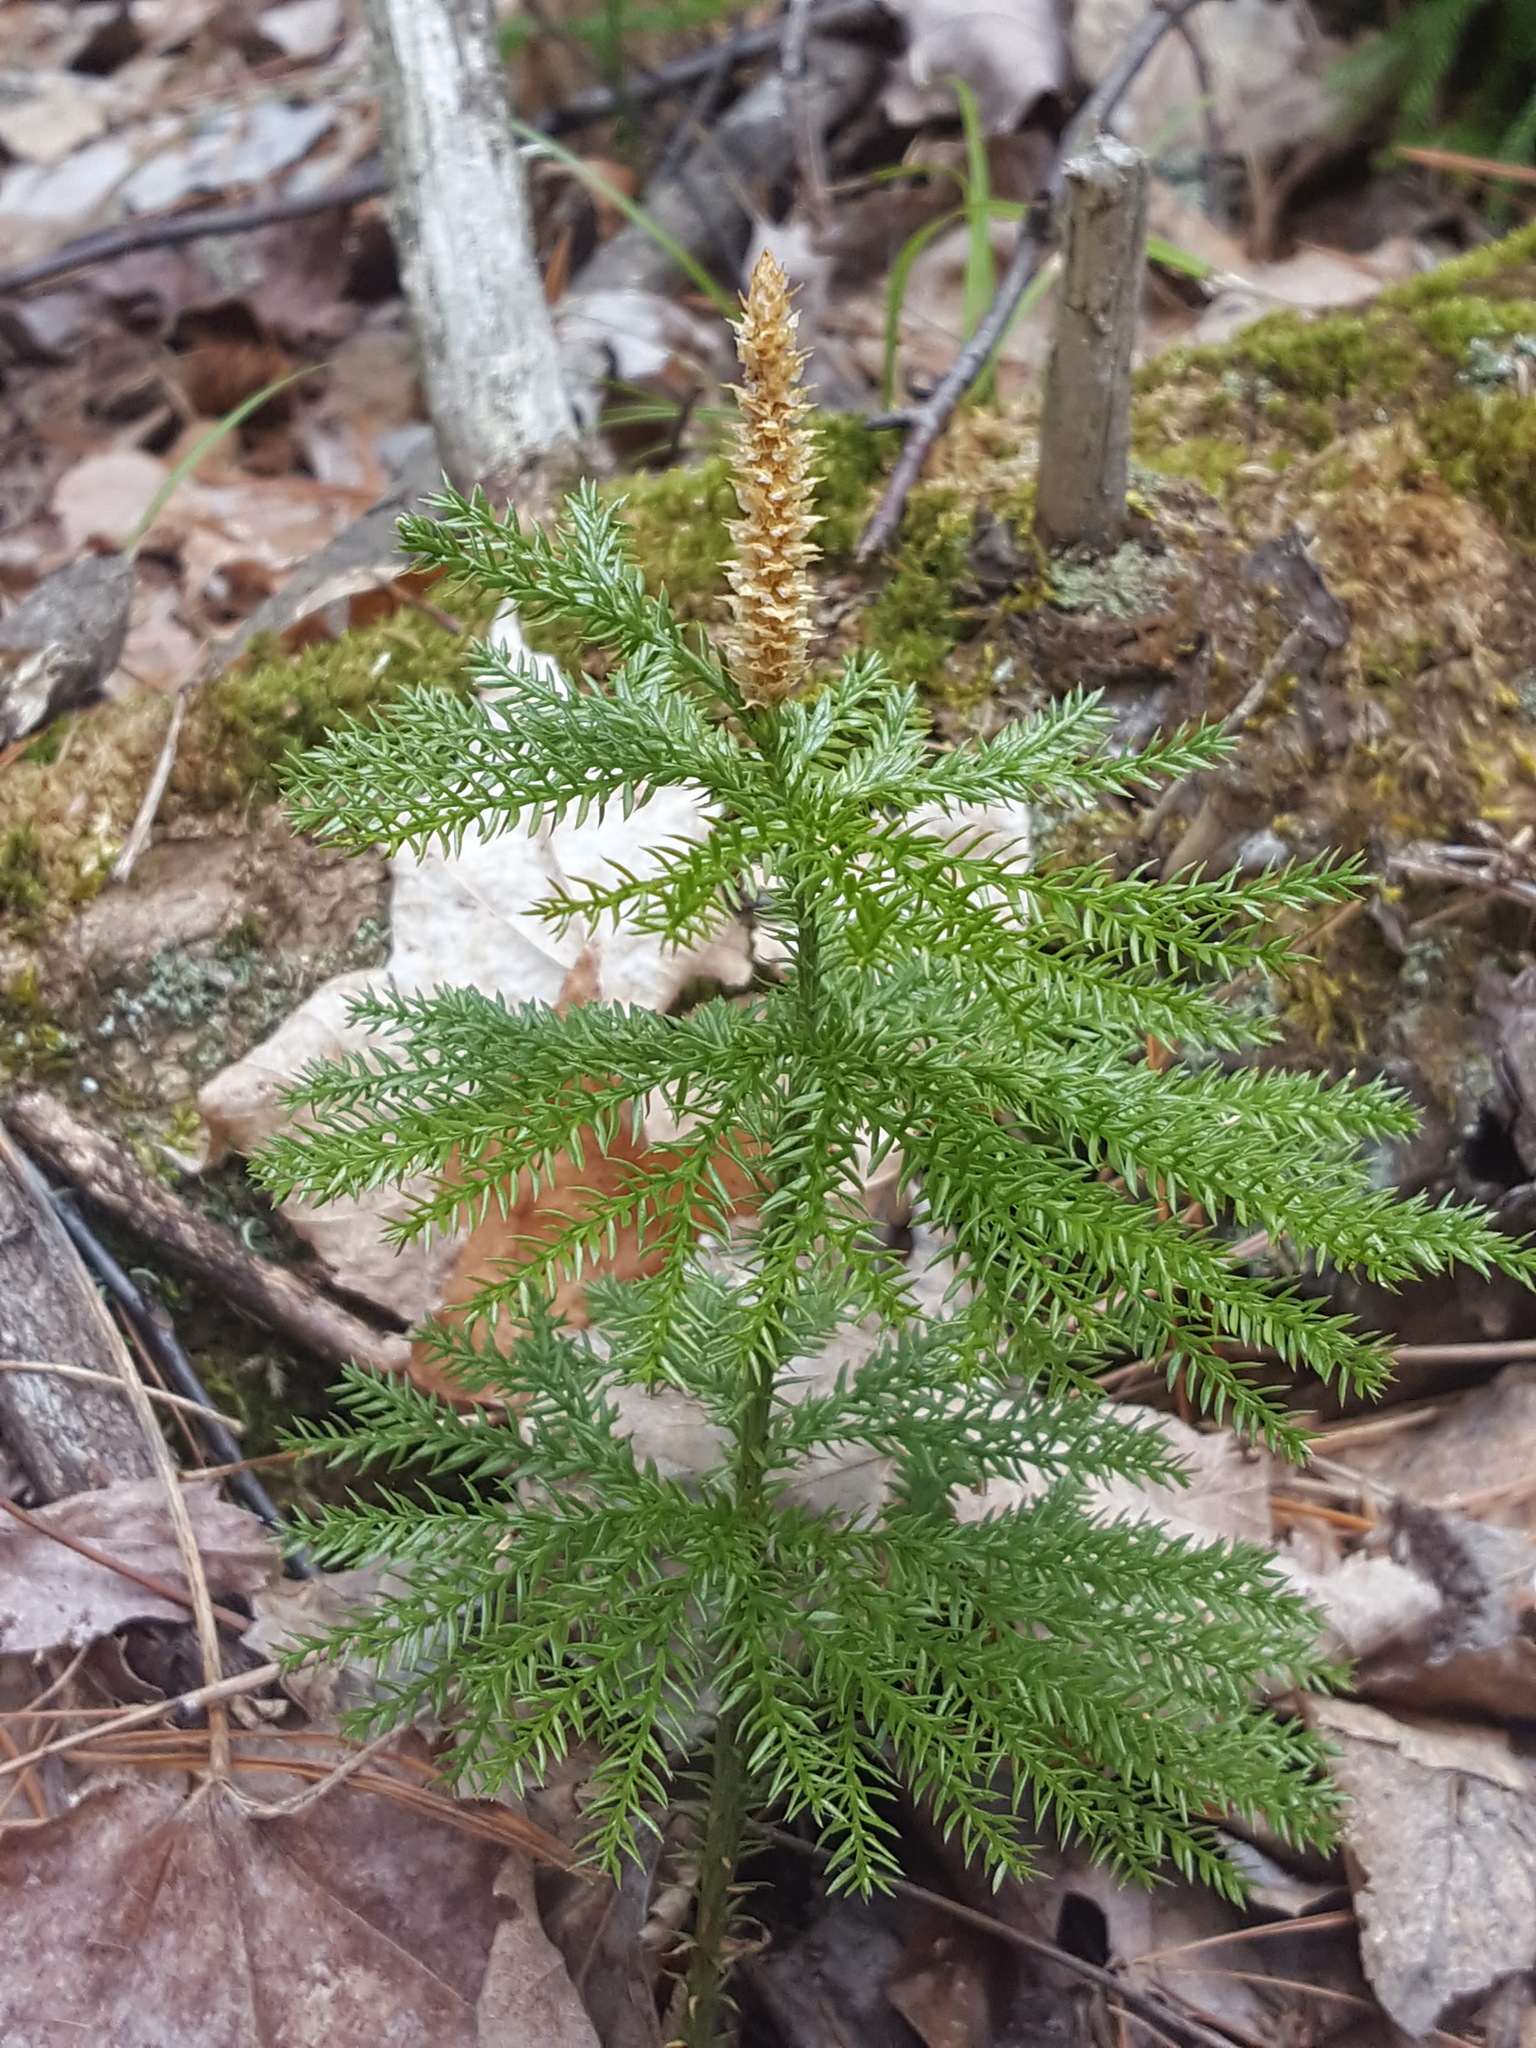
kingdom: Plantae
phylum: Tracheophyta
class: Lycopodiopsida
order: Lycopodiales
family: Lycopodiaceae
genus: Dendrolycopodium
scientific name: Dendrolycopodium dendroideum
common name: Northern tree-clubmoss
